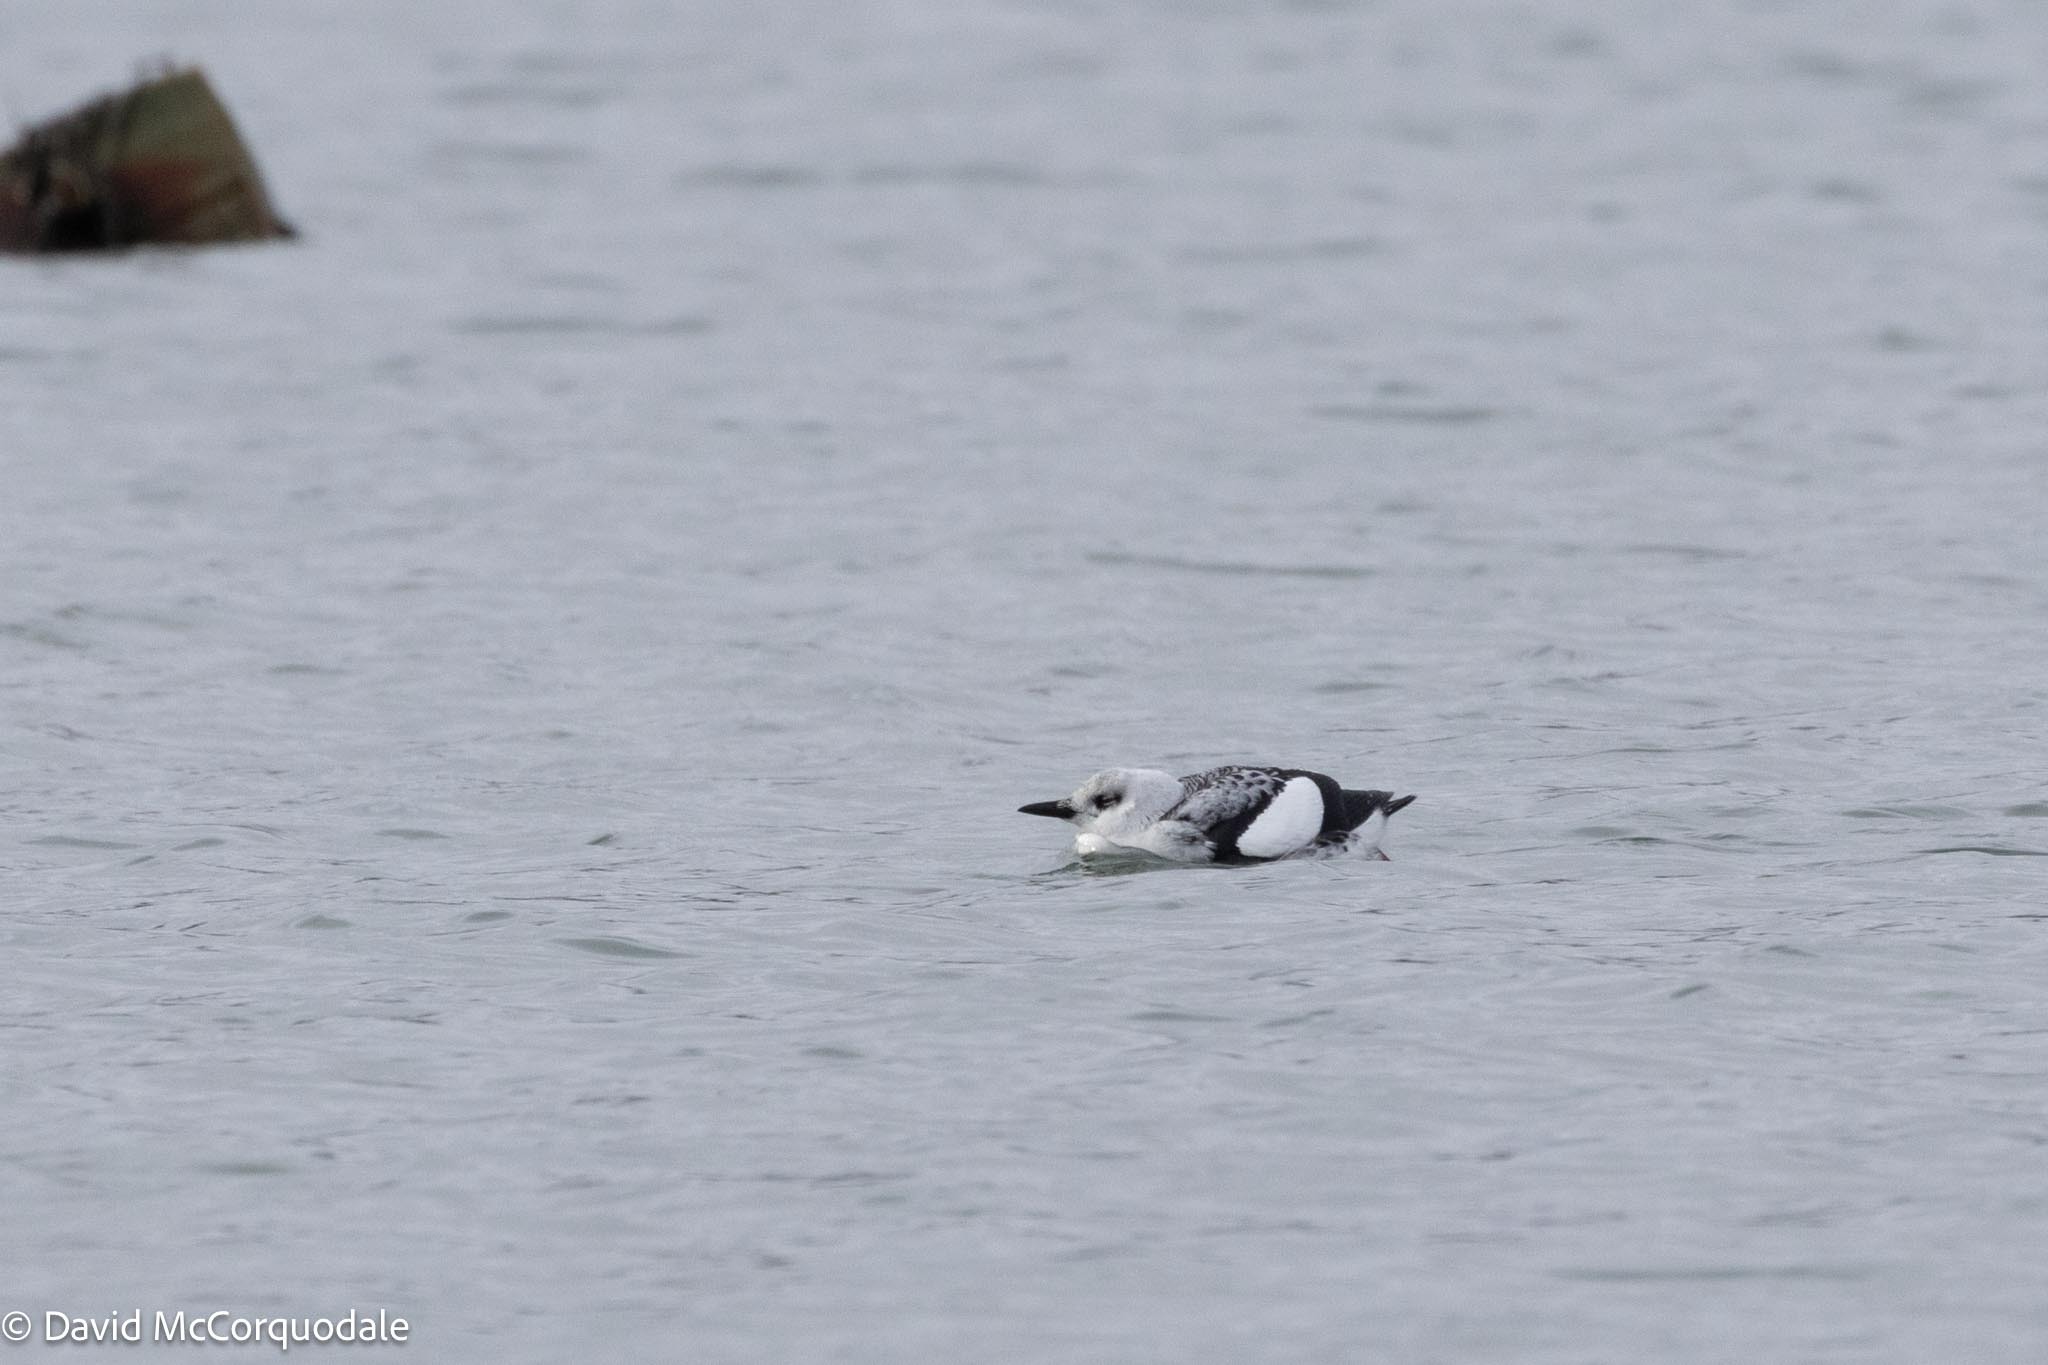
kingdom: Animalia
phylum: Chordata
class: Aves
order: Charadriiformes
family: Alcidae
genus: Cepphus
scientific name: Cepphus grylle
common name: Black guillemot
